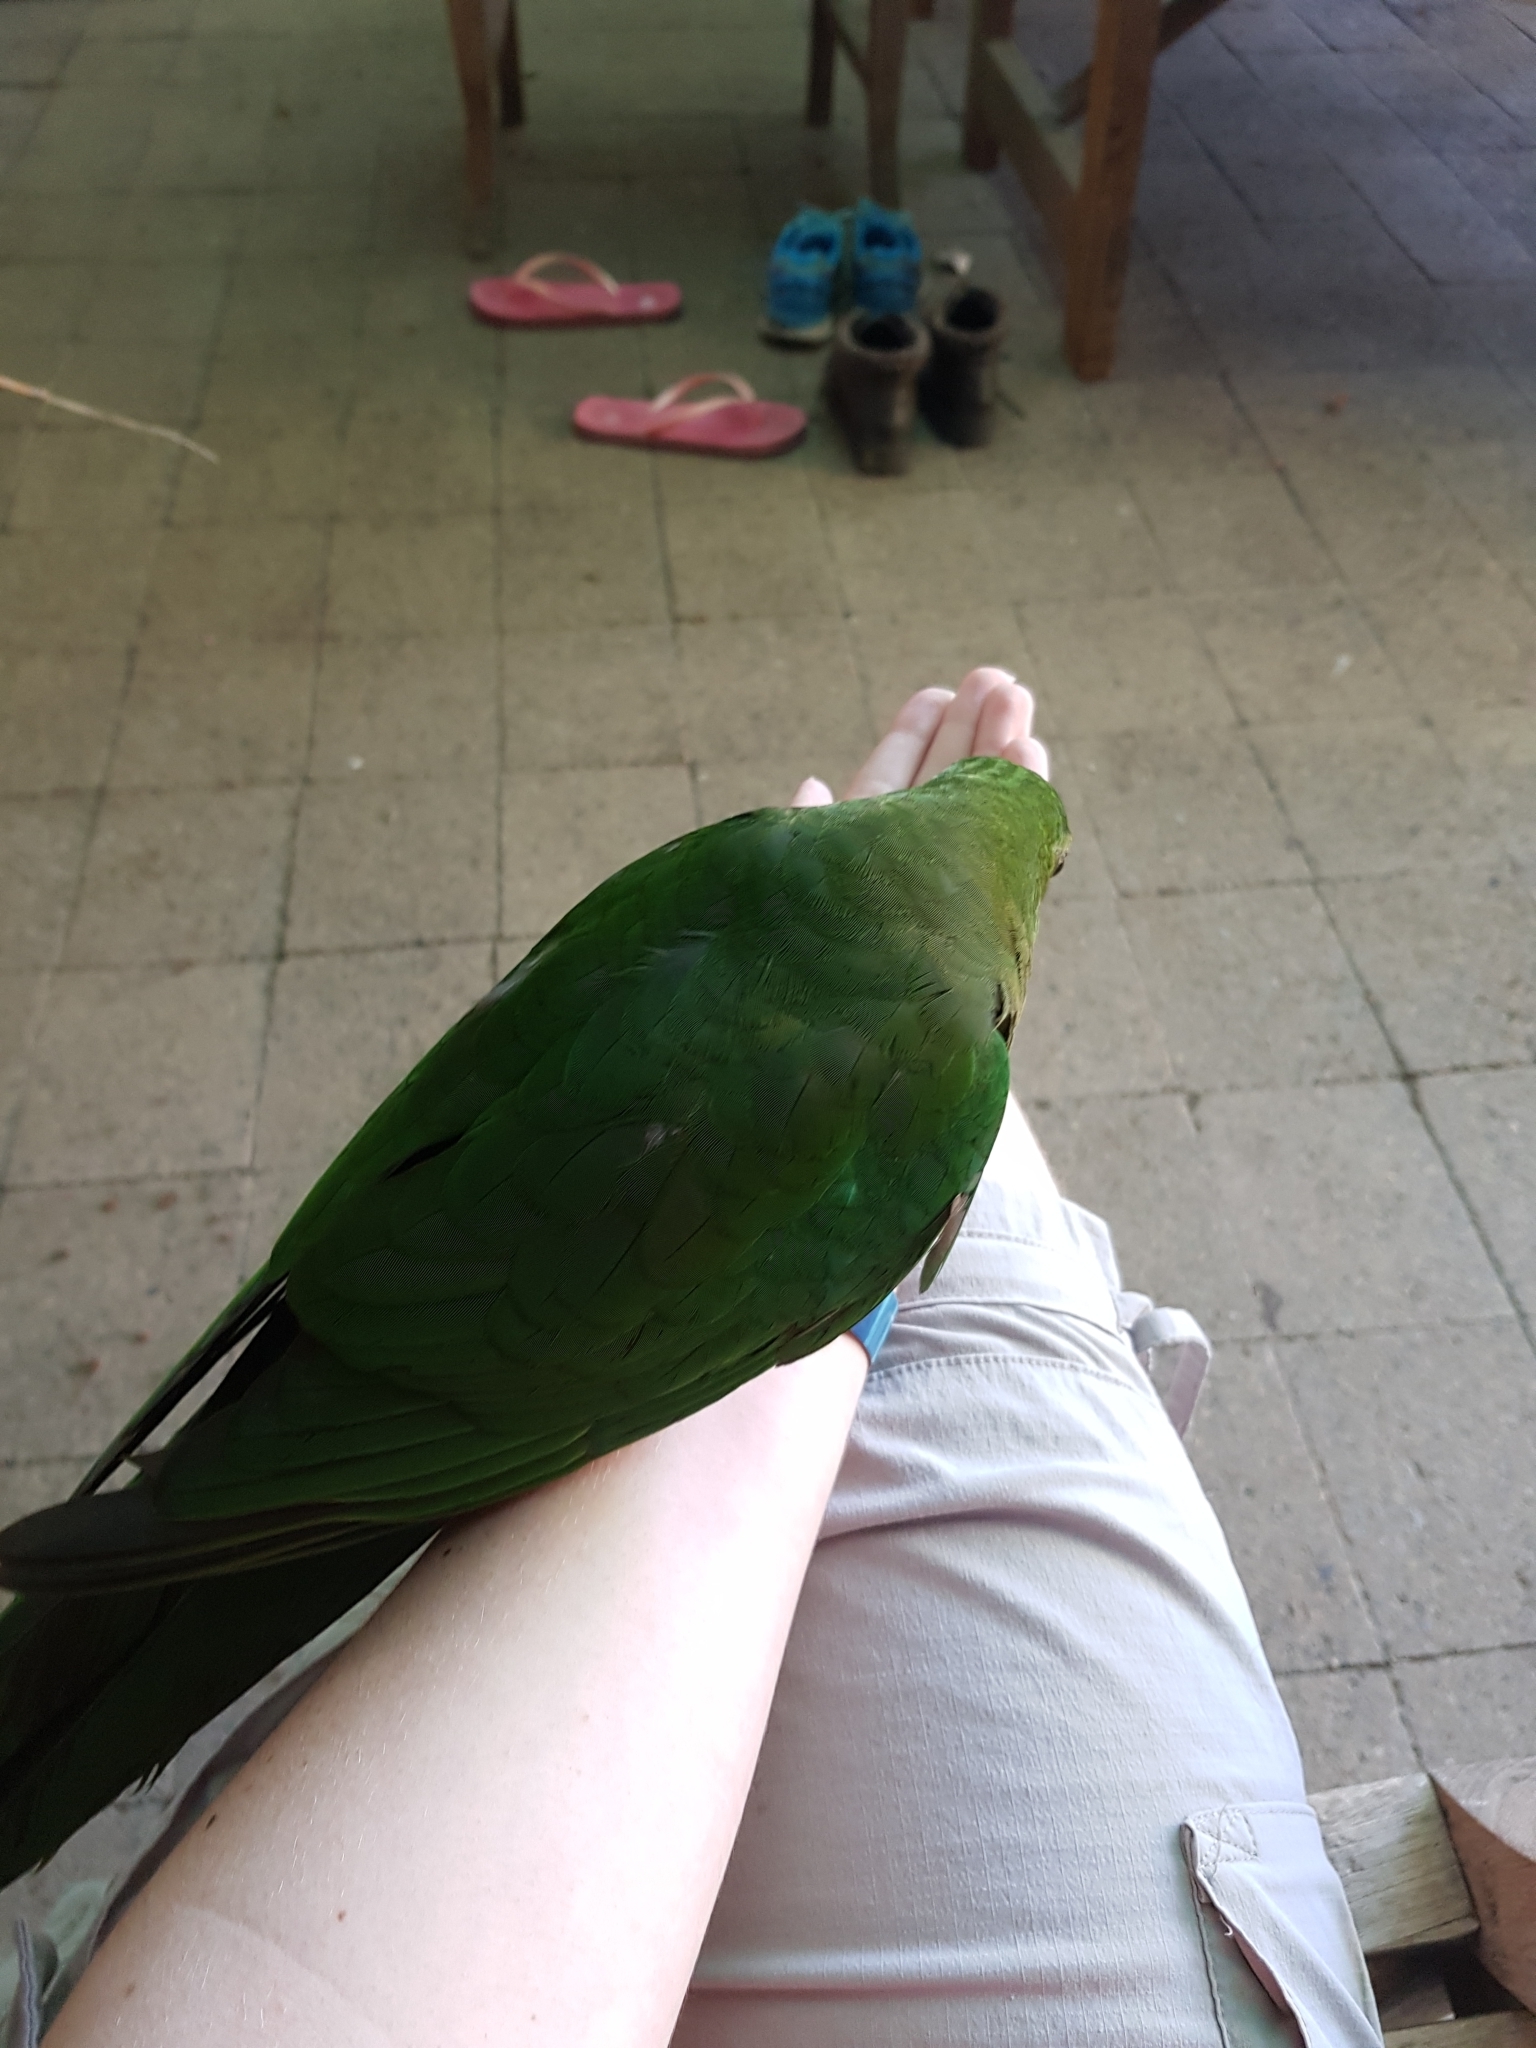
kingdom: Animalia
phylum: Chordata
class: Aves
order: Psittaciformes
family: Psittacidae
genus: Alisterus
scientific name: Alisterus scapularis
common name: Australian king parrot
